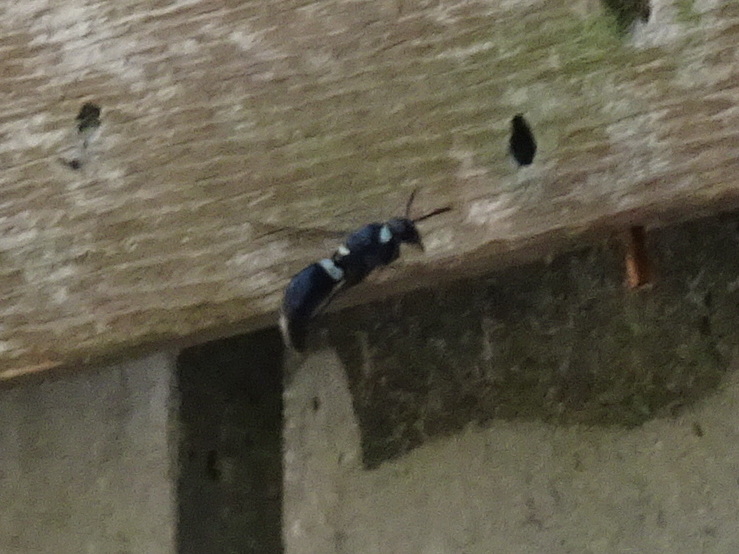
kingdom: Animalia
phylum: Arthropoda
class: Insecta
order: Hymenoptera
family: Eumenidae
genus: Monobia
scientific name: Monobia quadridens
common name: Four-toothed mason wasp
